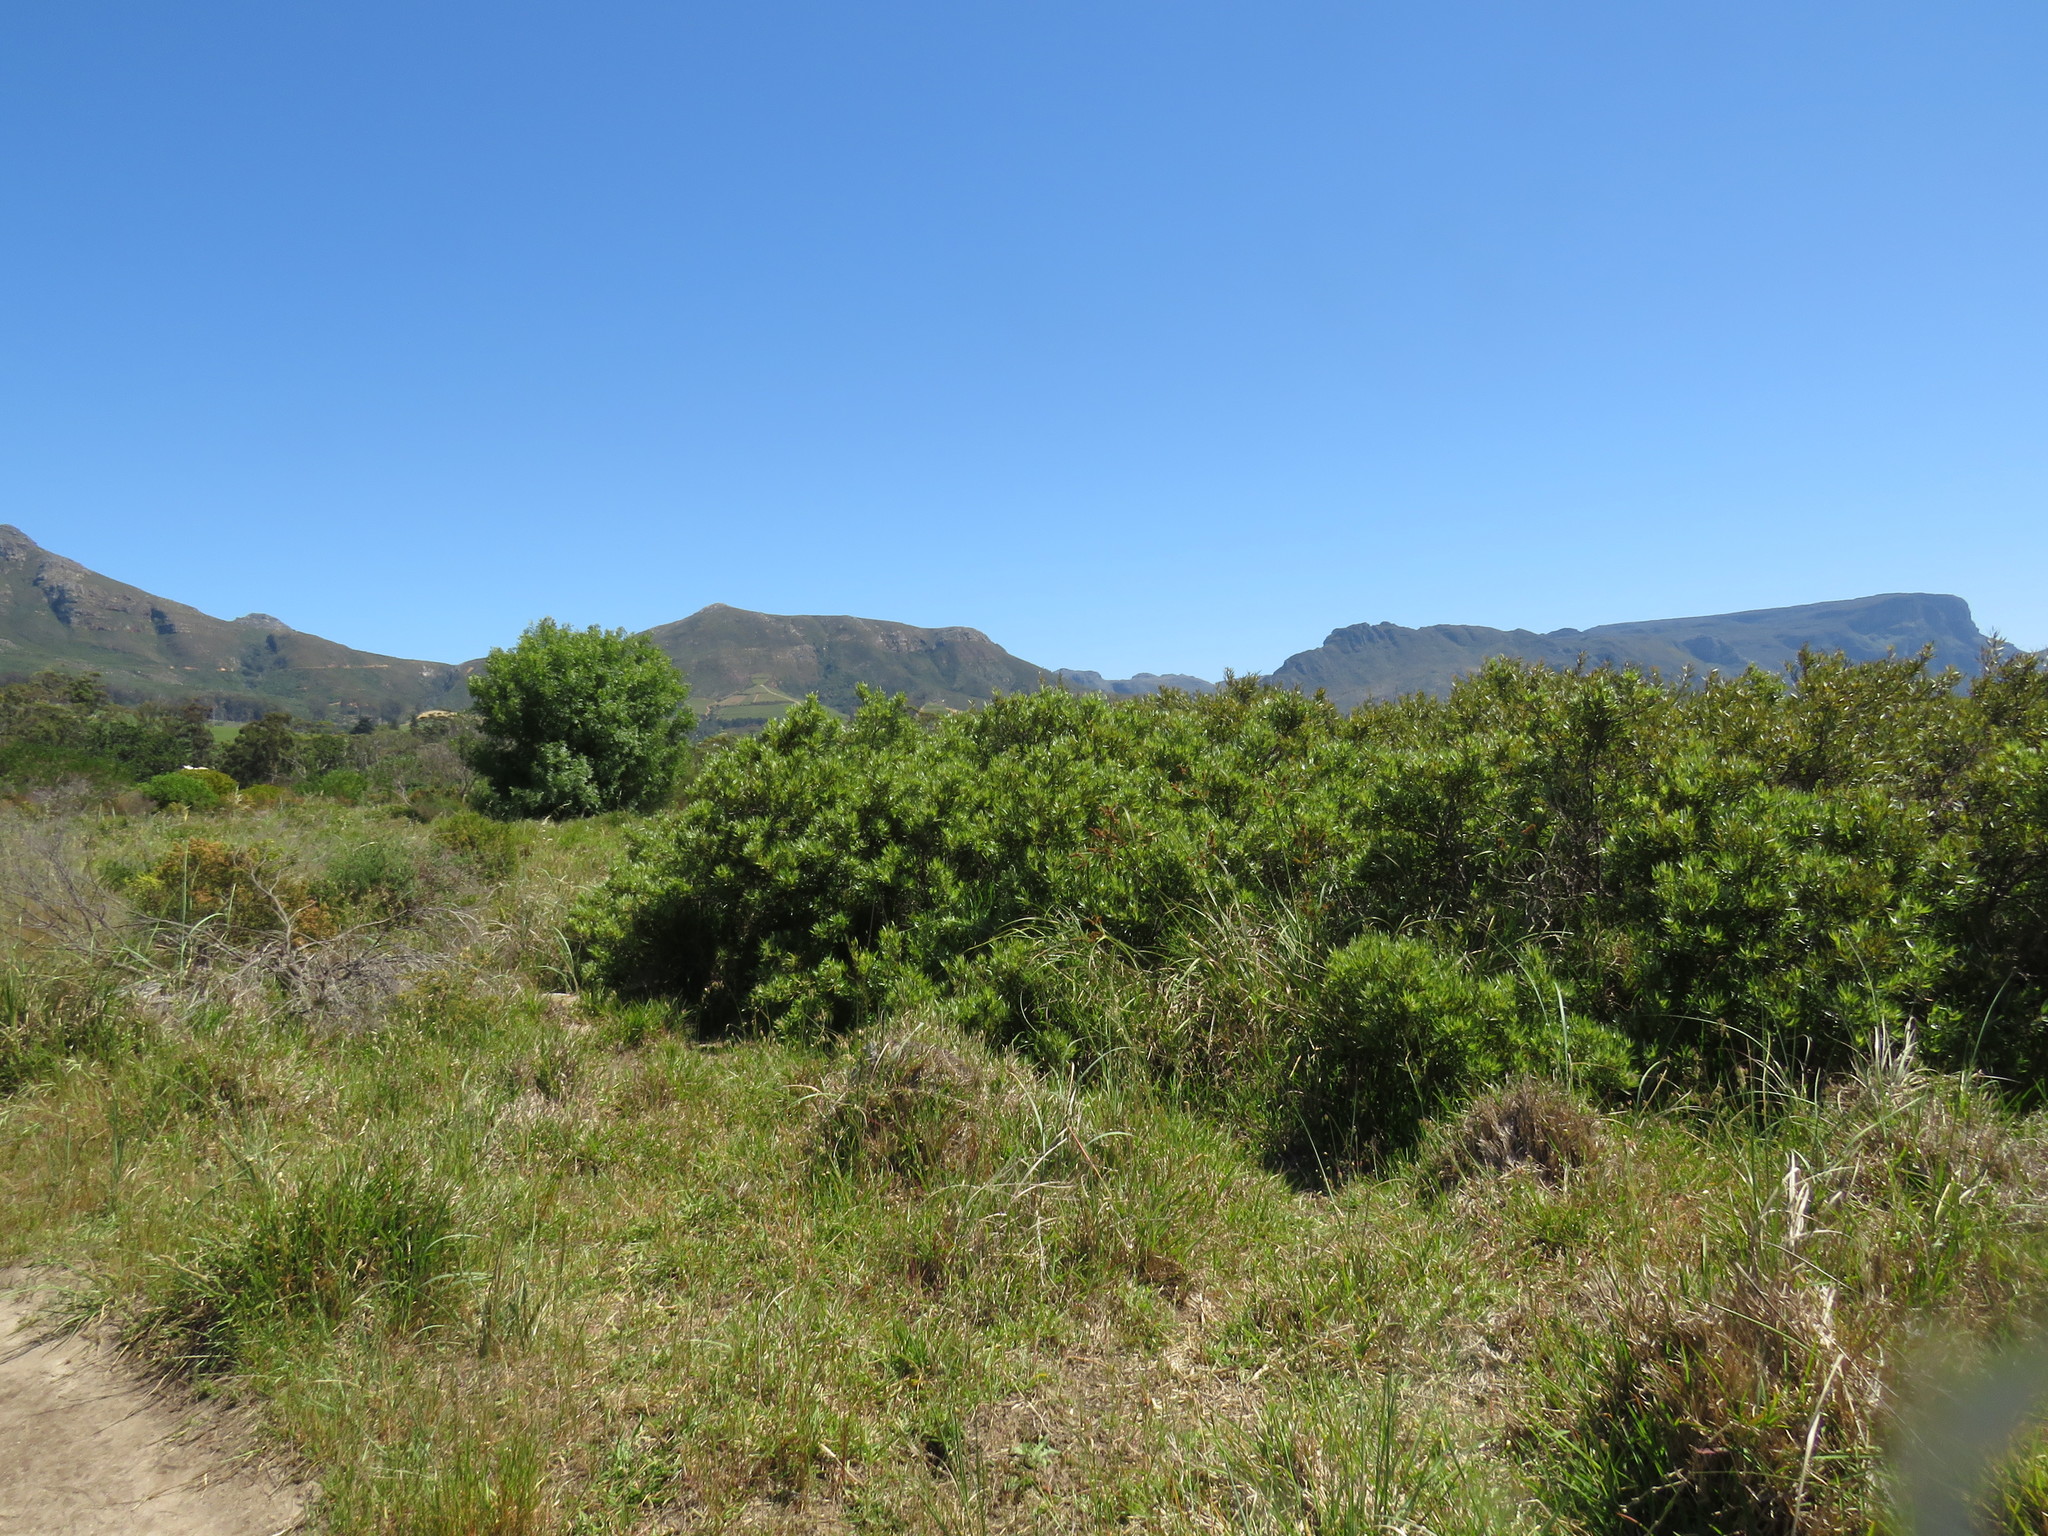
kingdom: Plantae
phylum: Tracheophyta
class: Magnoliopsida
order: Sapindales
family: Anacardiaceae
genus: Searsia
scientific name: Searsia angustifolia
